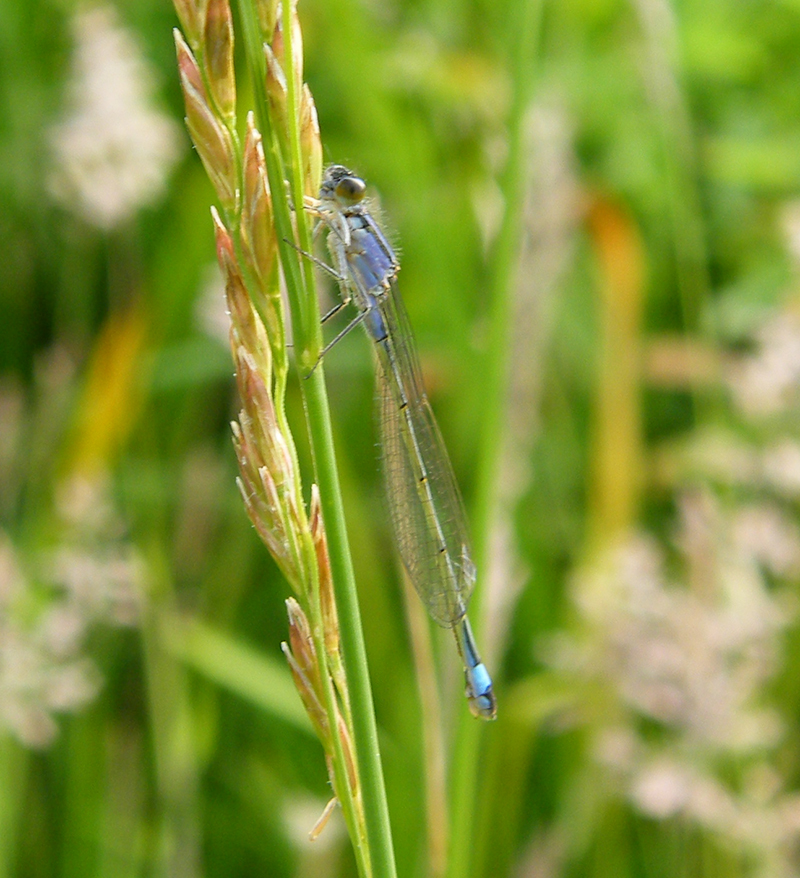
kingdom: Animalia
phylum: Arthropoda
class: Insecta
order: Odonata
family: Coenagrionidae
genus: Ischnura
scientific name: Ischnura elegans
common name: Blue-tailed damselfly
